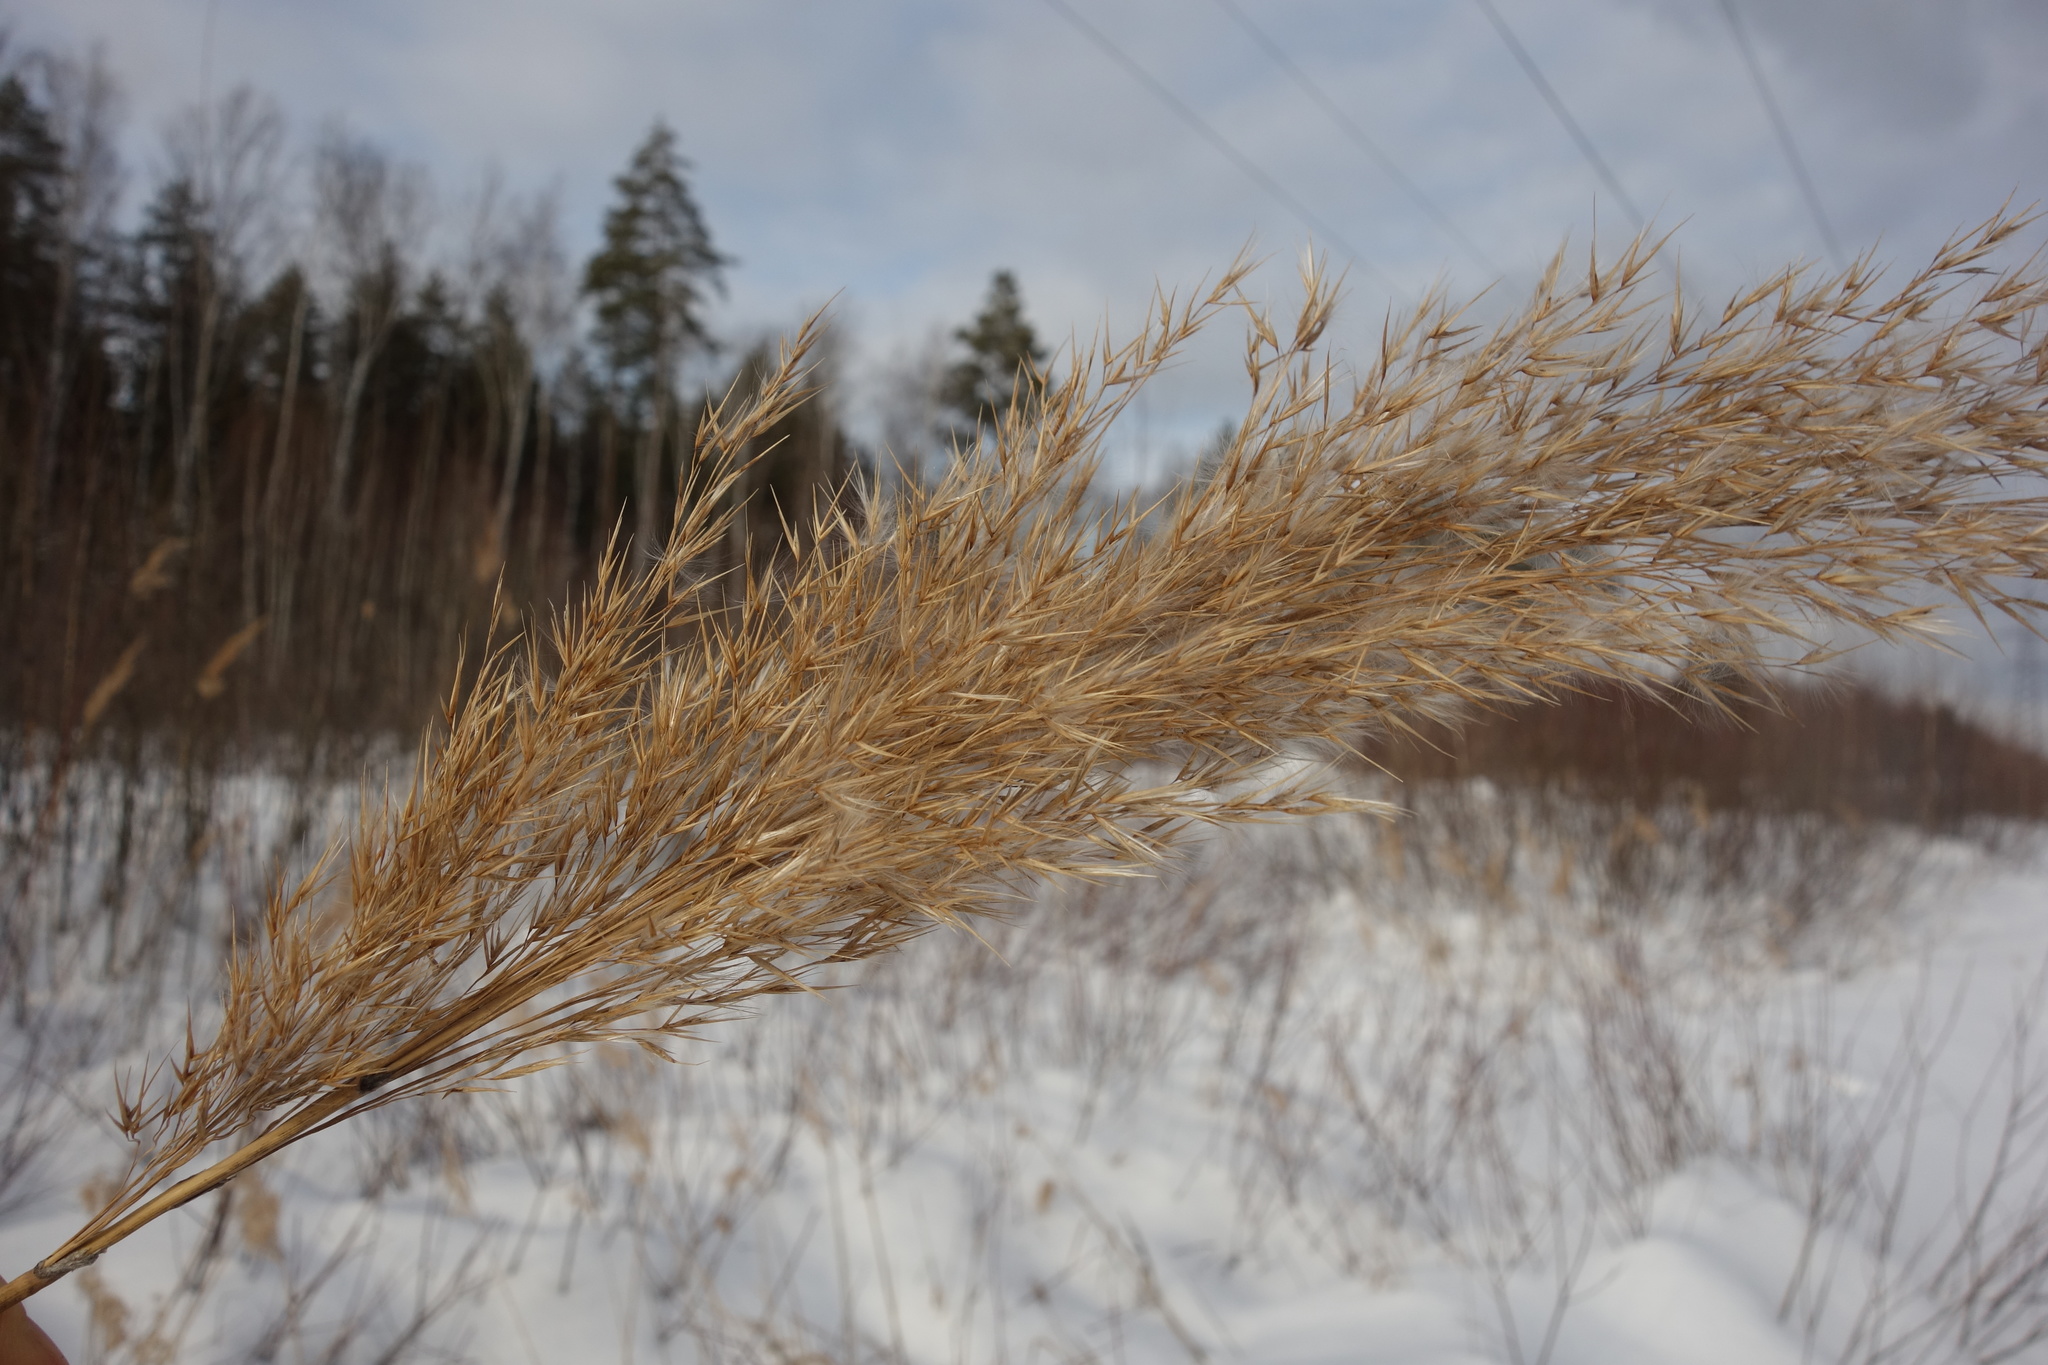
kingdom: Plantae
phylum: Tracheophyta
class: Liliopsida
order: Poales
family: Poaceae
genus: Phragmites
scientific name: Phragmites australis
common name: Common reed
